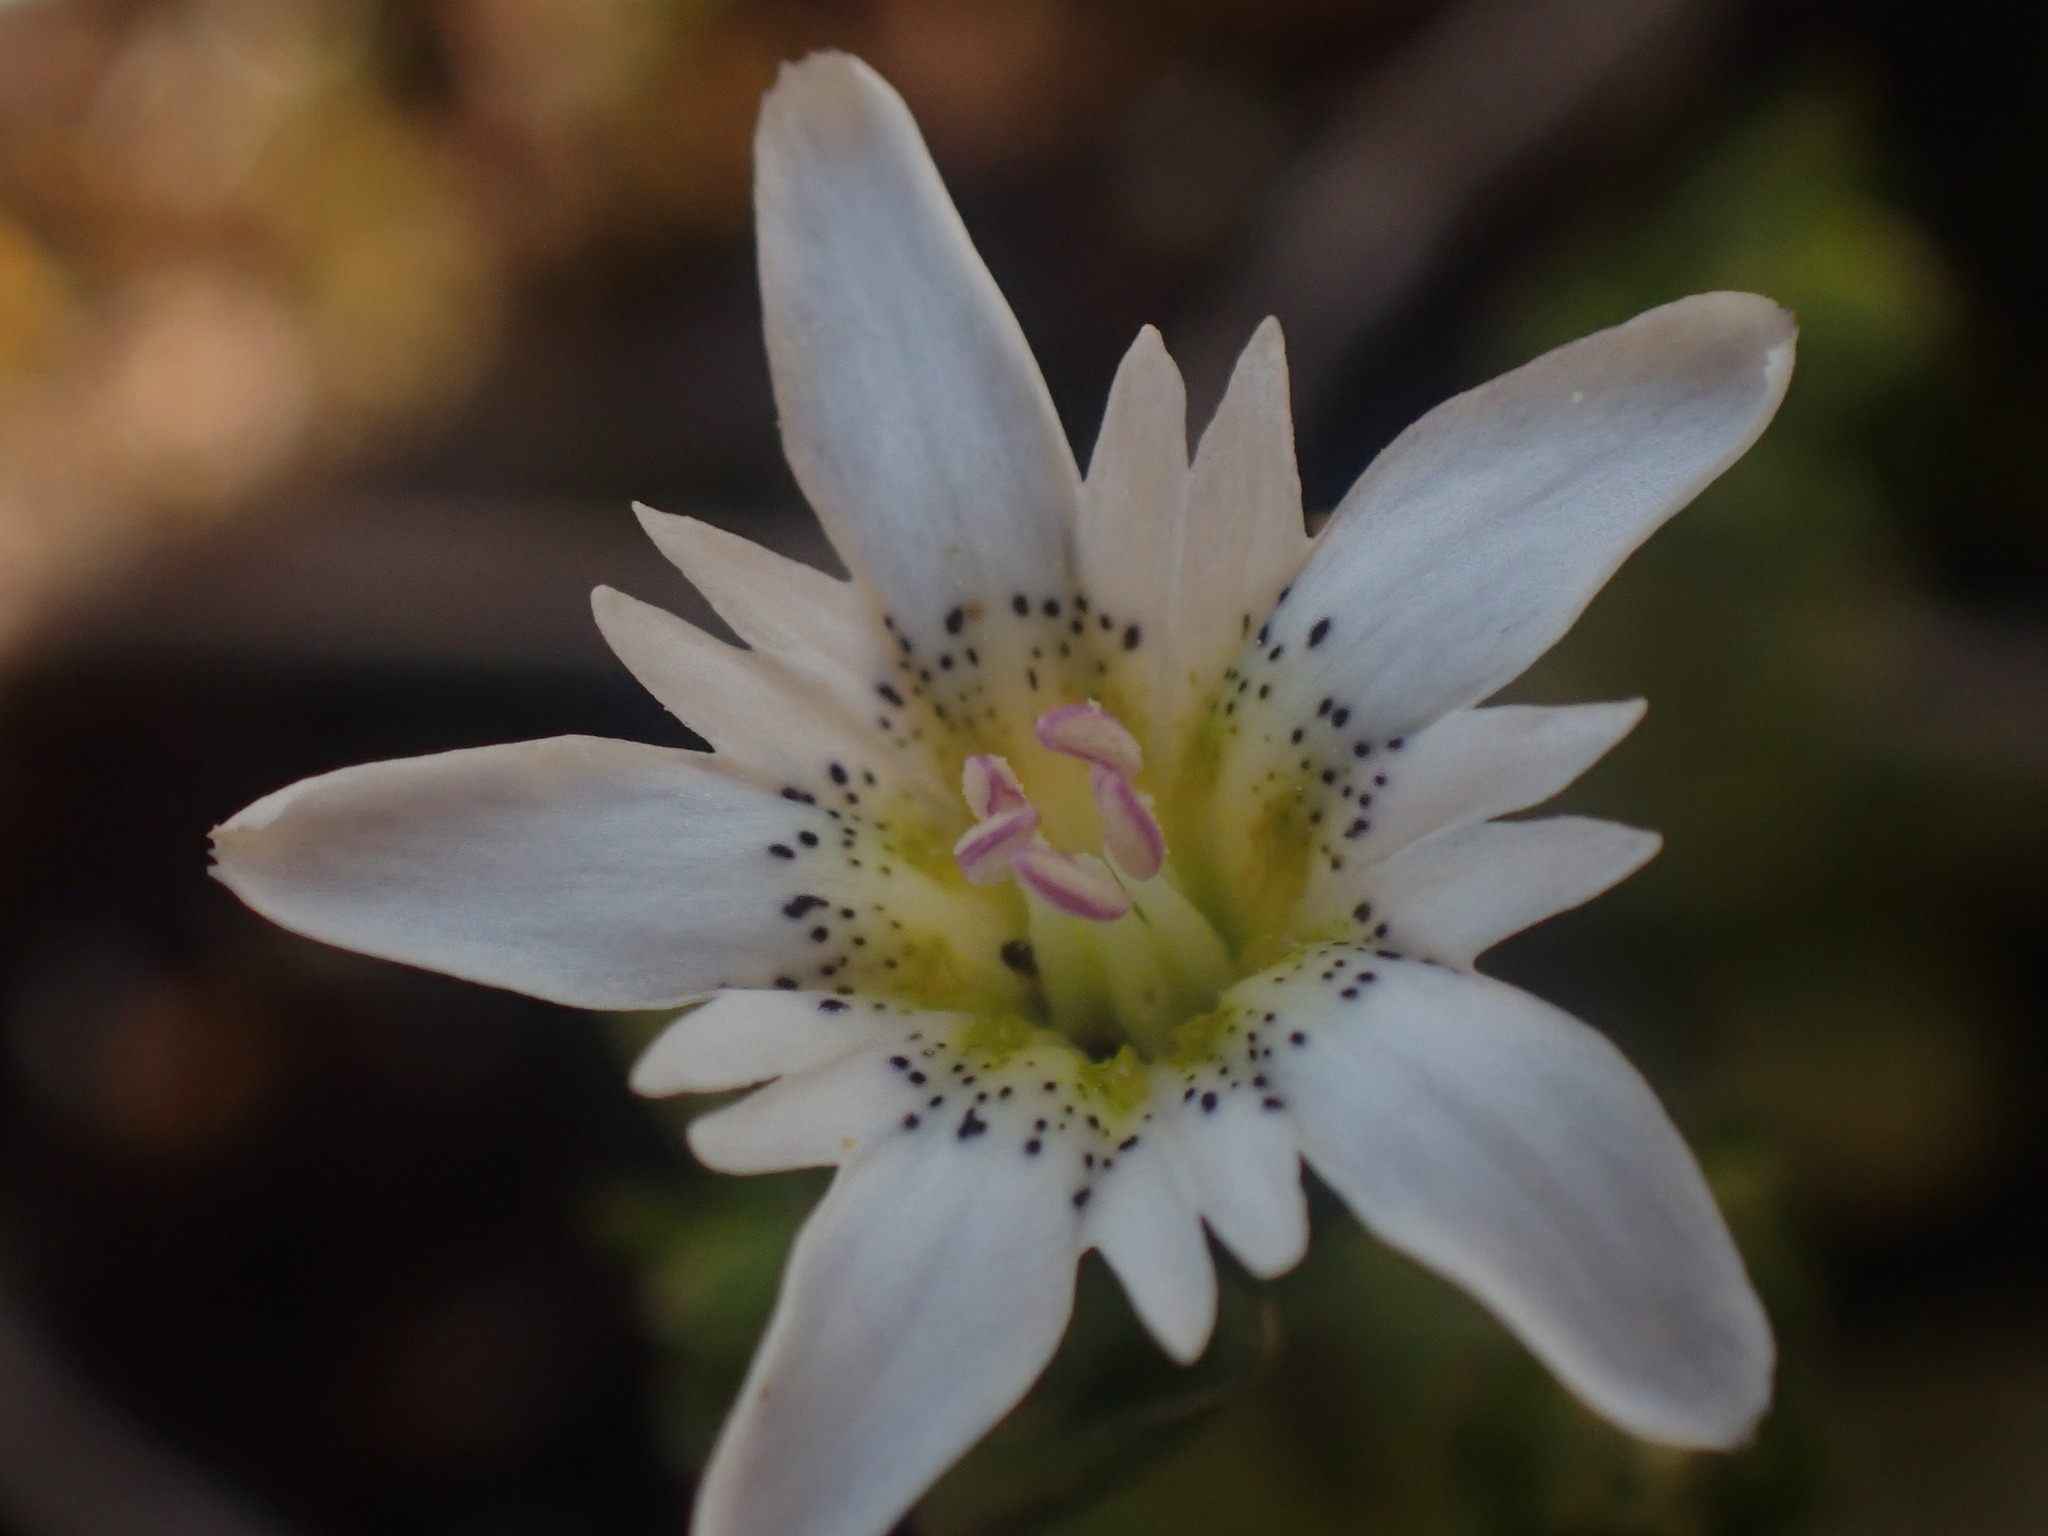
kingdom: Plantae
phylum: Tracheophyta
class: Magnoliopsida
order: Gentianales
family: Gentianaceae
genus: Gentiana
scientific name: Gentiana douglasiana
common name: Swamp gentian
